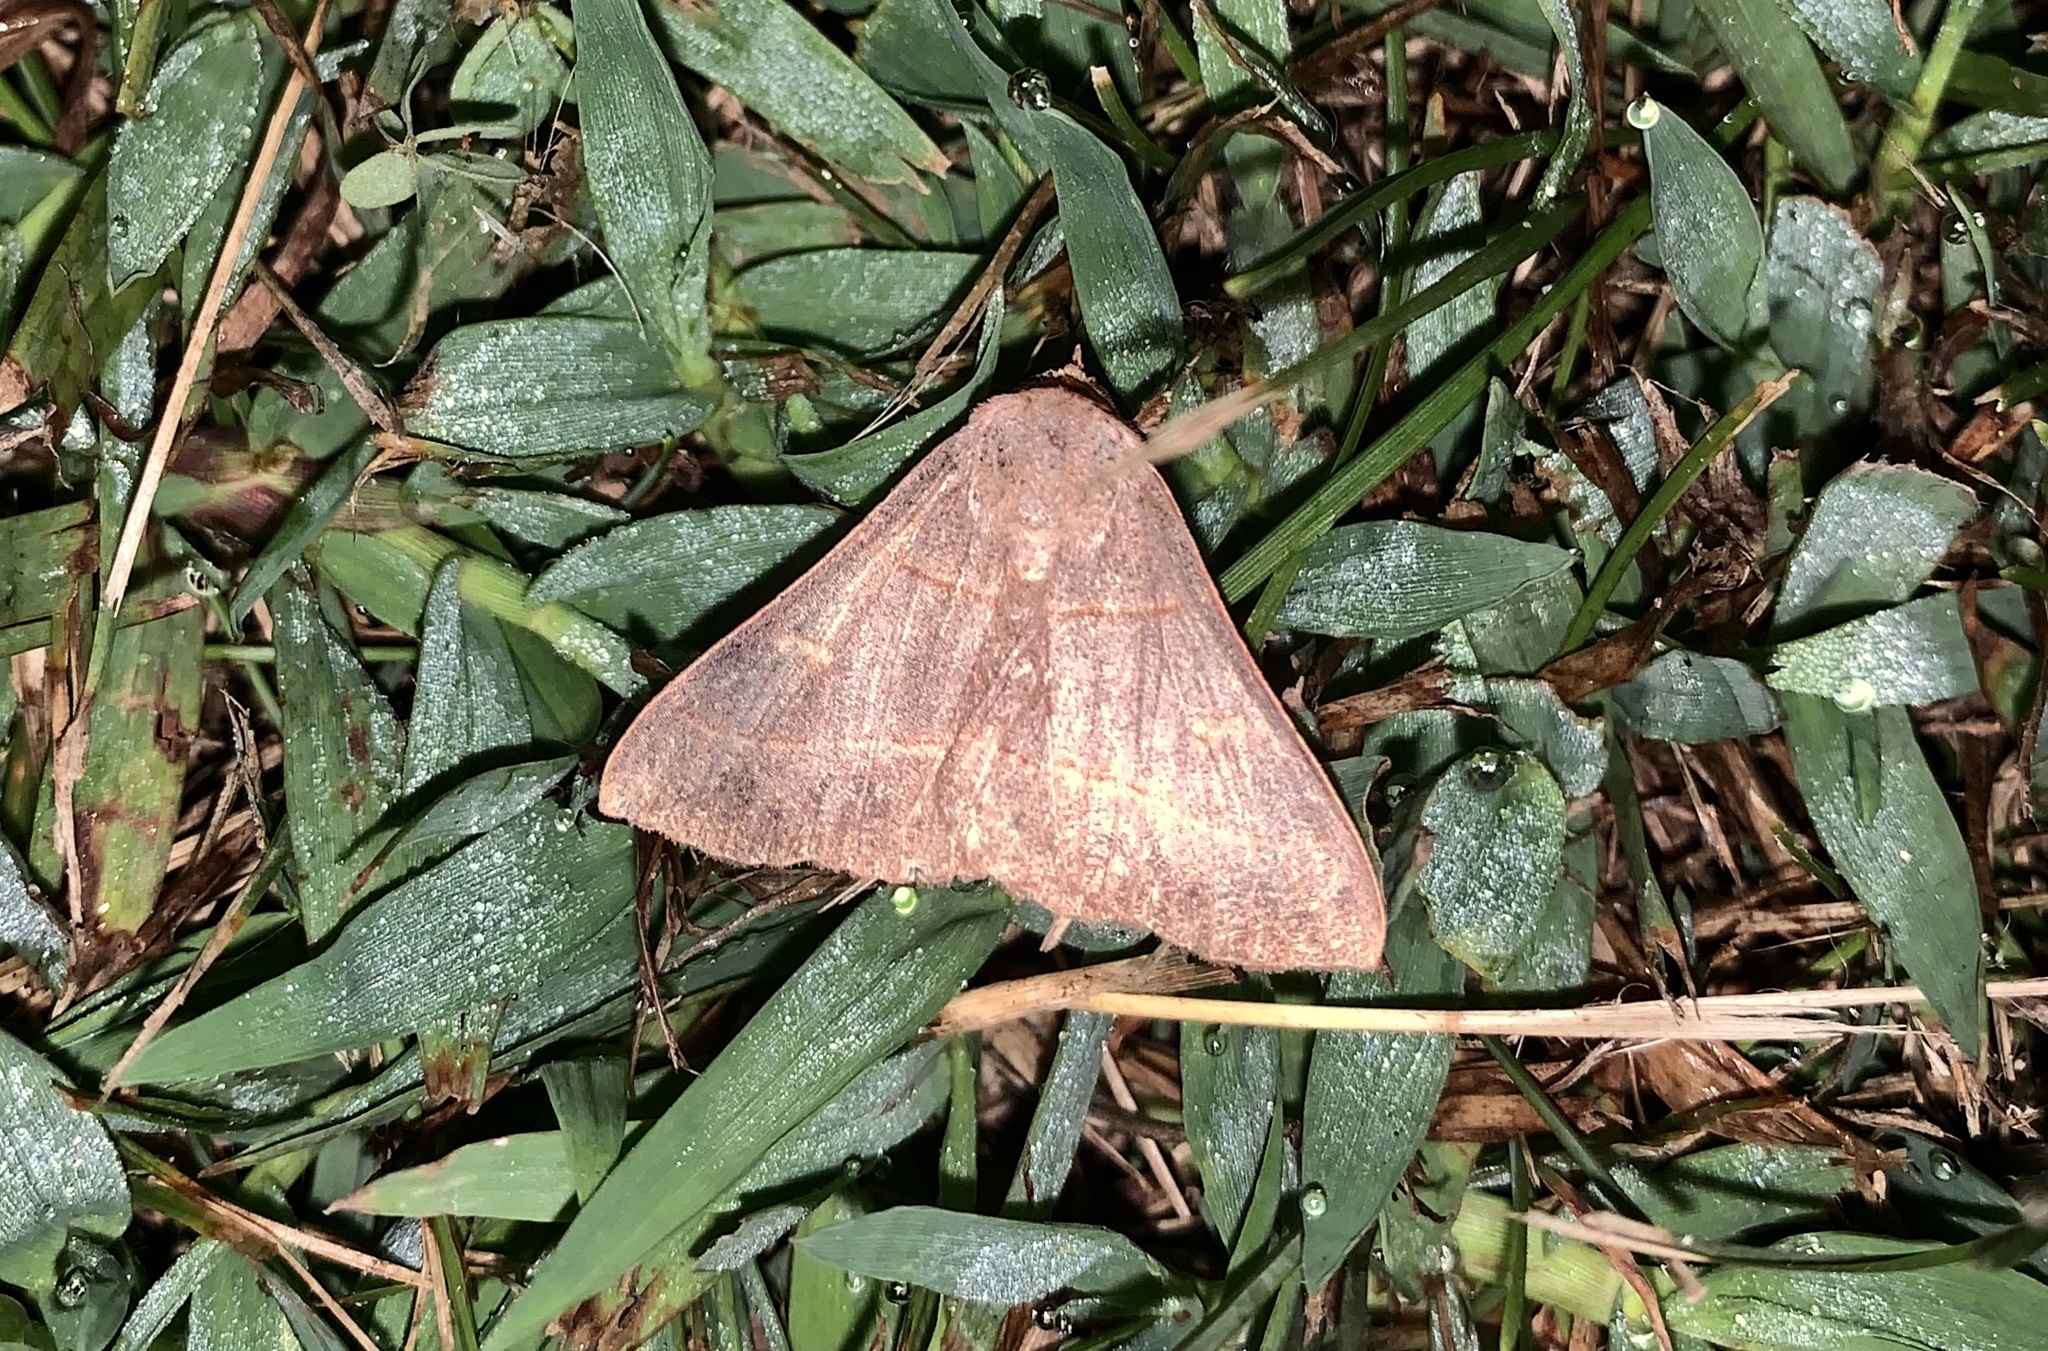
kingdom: Animalia
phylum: Arthropoda
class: Insecta
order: Lepidoptera
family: Erebidae
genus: Panopoda
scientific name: Panopoda rufimargo
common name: Red-lined panopoda moth
